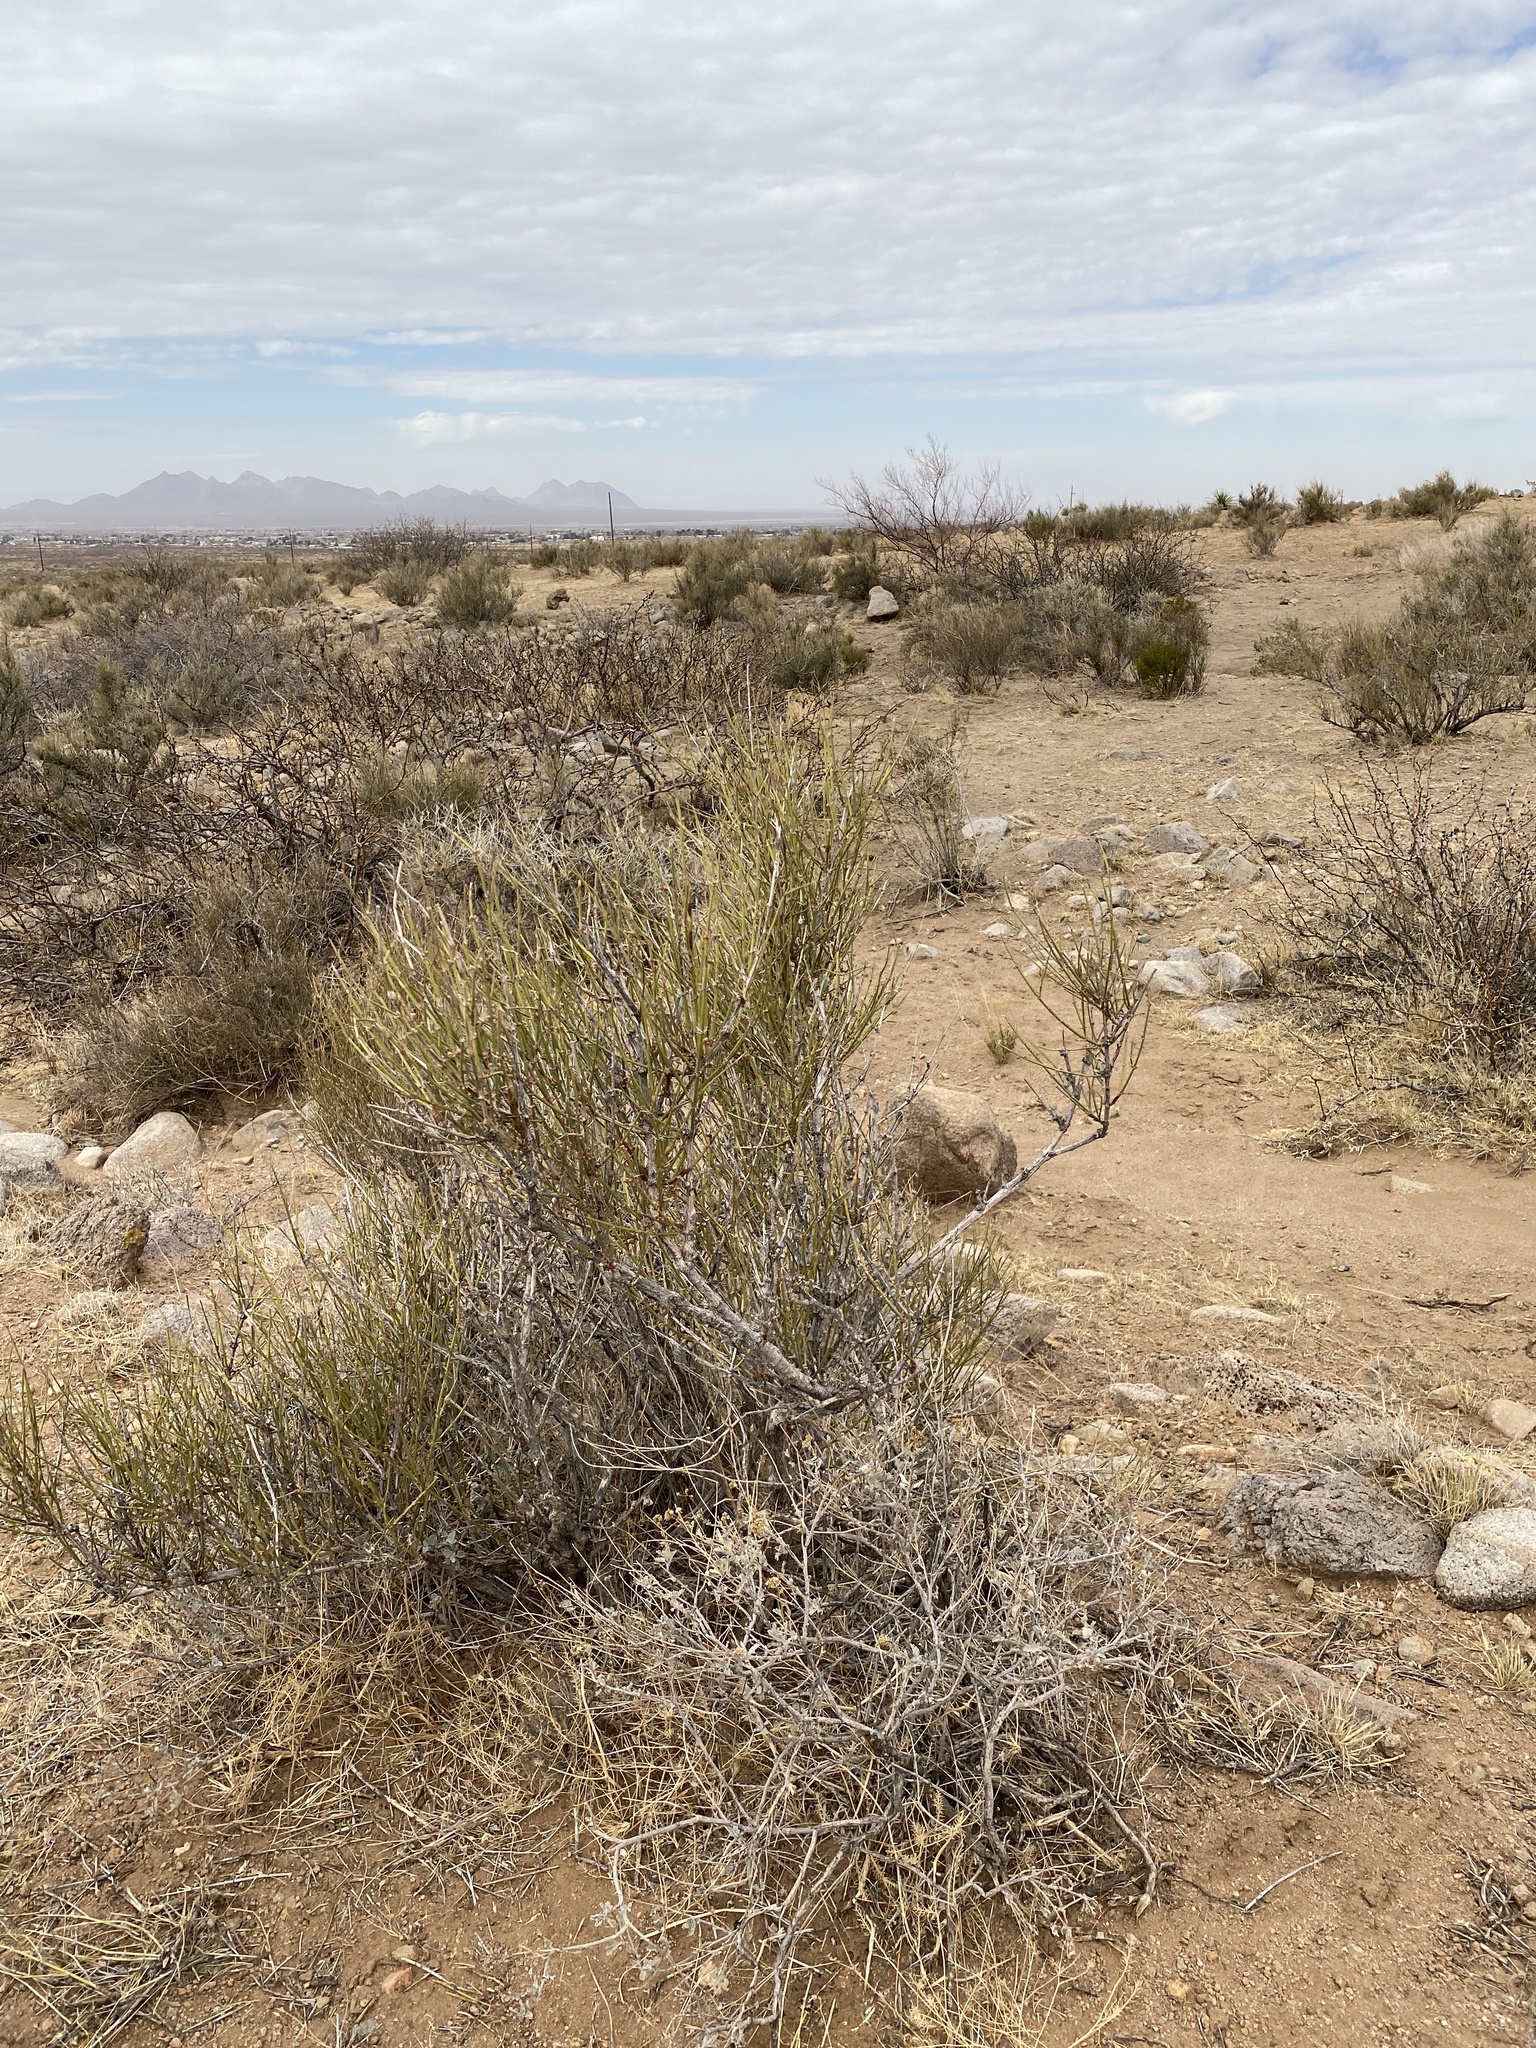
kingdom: Plantae
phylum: Tracheophyta
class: Gnetopsida
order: Ephedrales
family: Ephedraceae
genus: Ephedra
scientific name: Ephedra trifurca
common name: Mexican-tea
